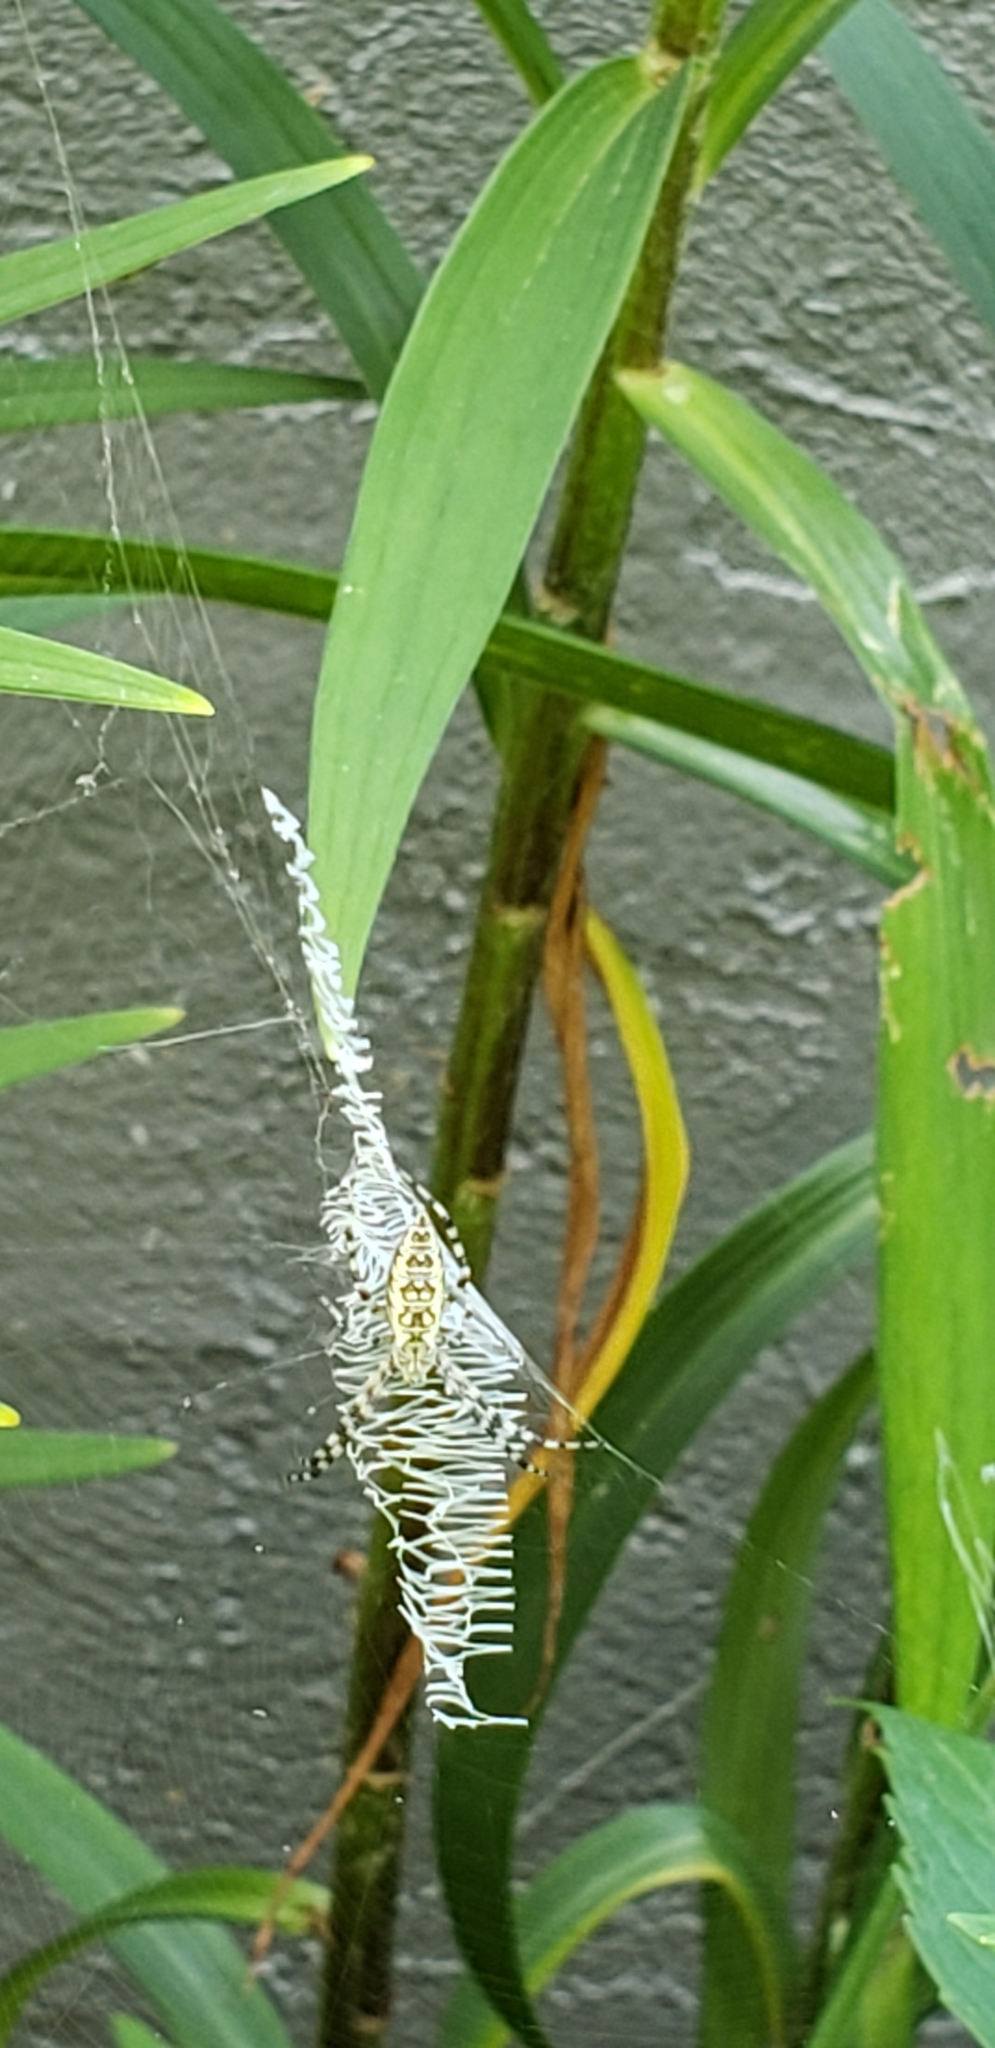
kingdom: Animalia
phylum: Arthropoda
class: Arachnida
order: Araneae
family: Araneidae
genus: Argiope
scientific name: Argiope aurantia
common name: Orb weavers
